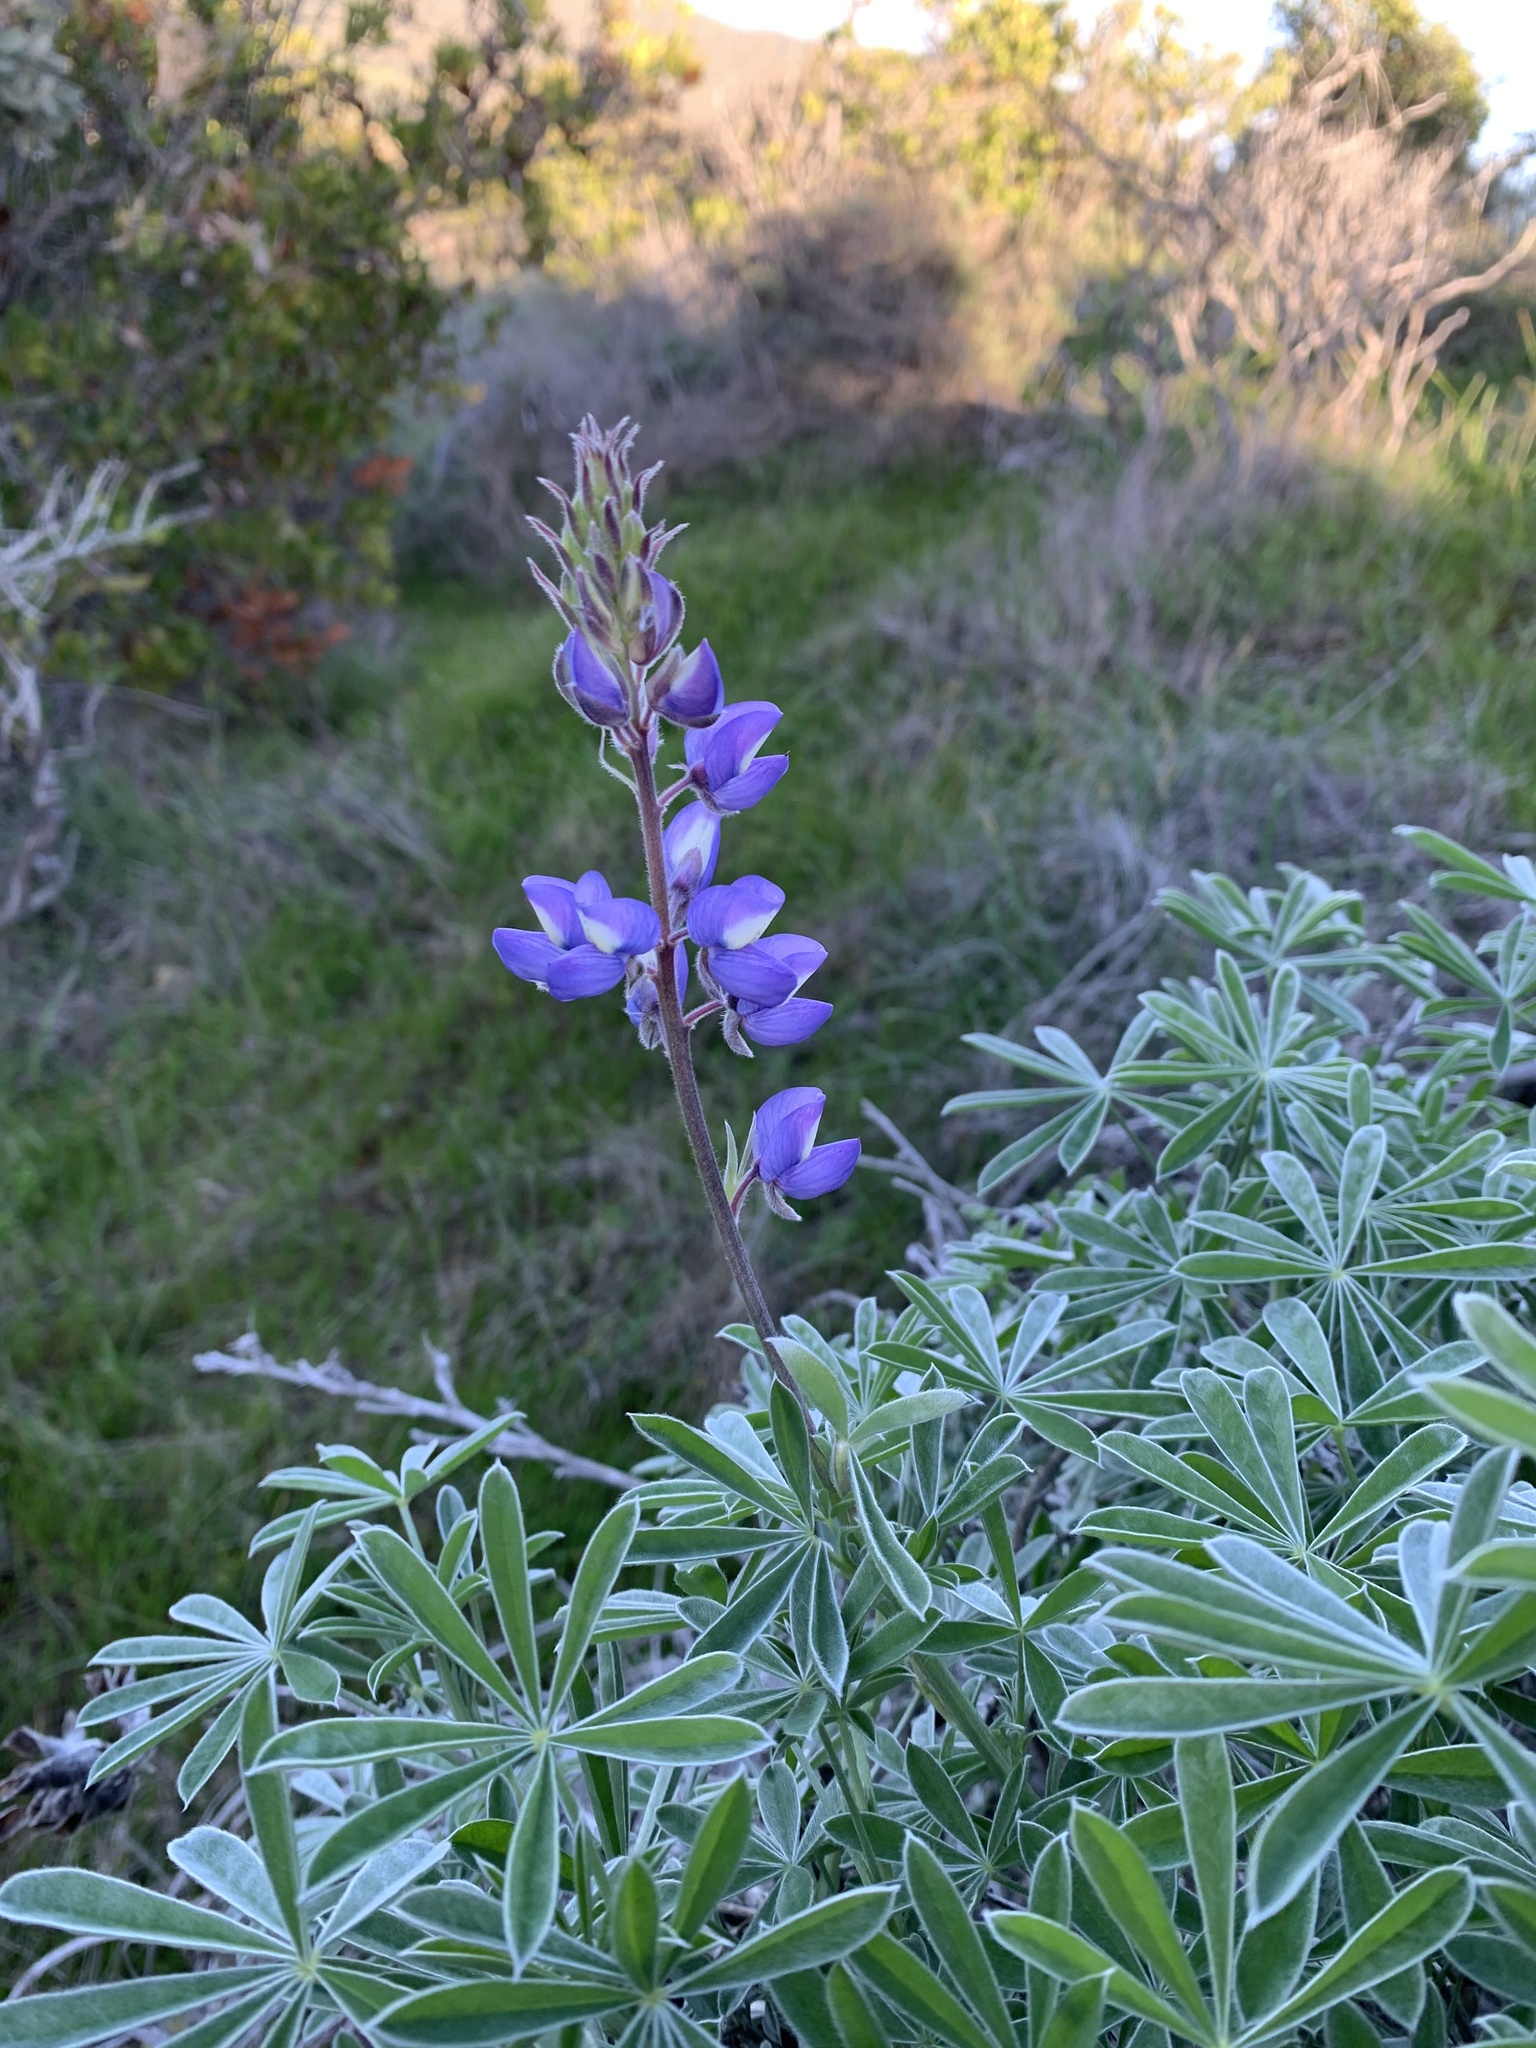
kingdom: Plantae
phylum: Tracheophyta
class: Magnoliopsida
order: Fabales
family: Fabaceae
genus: Lupinus
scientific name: Lupinus albifrons
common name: Foothill lupine
